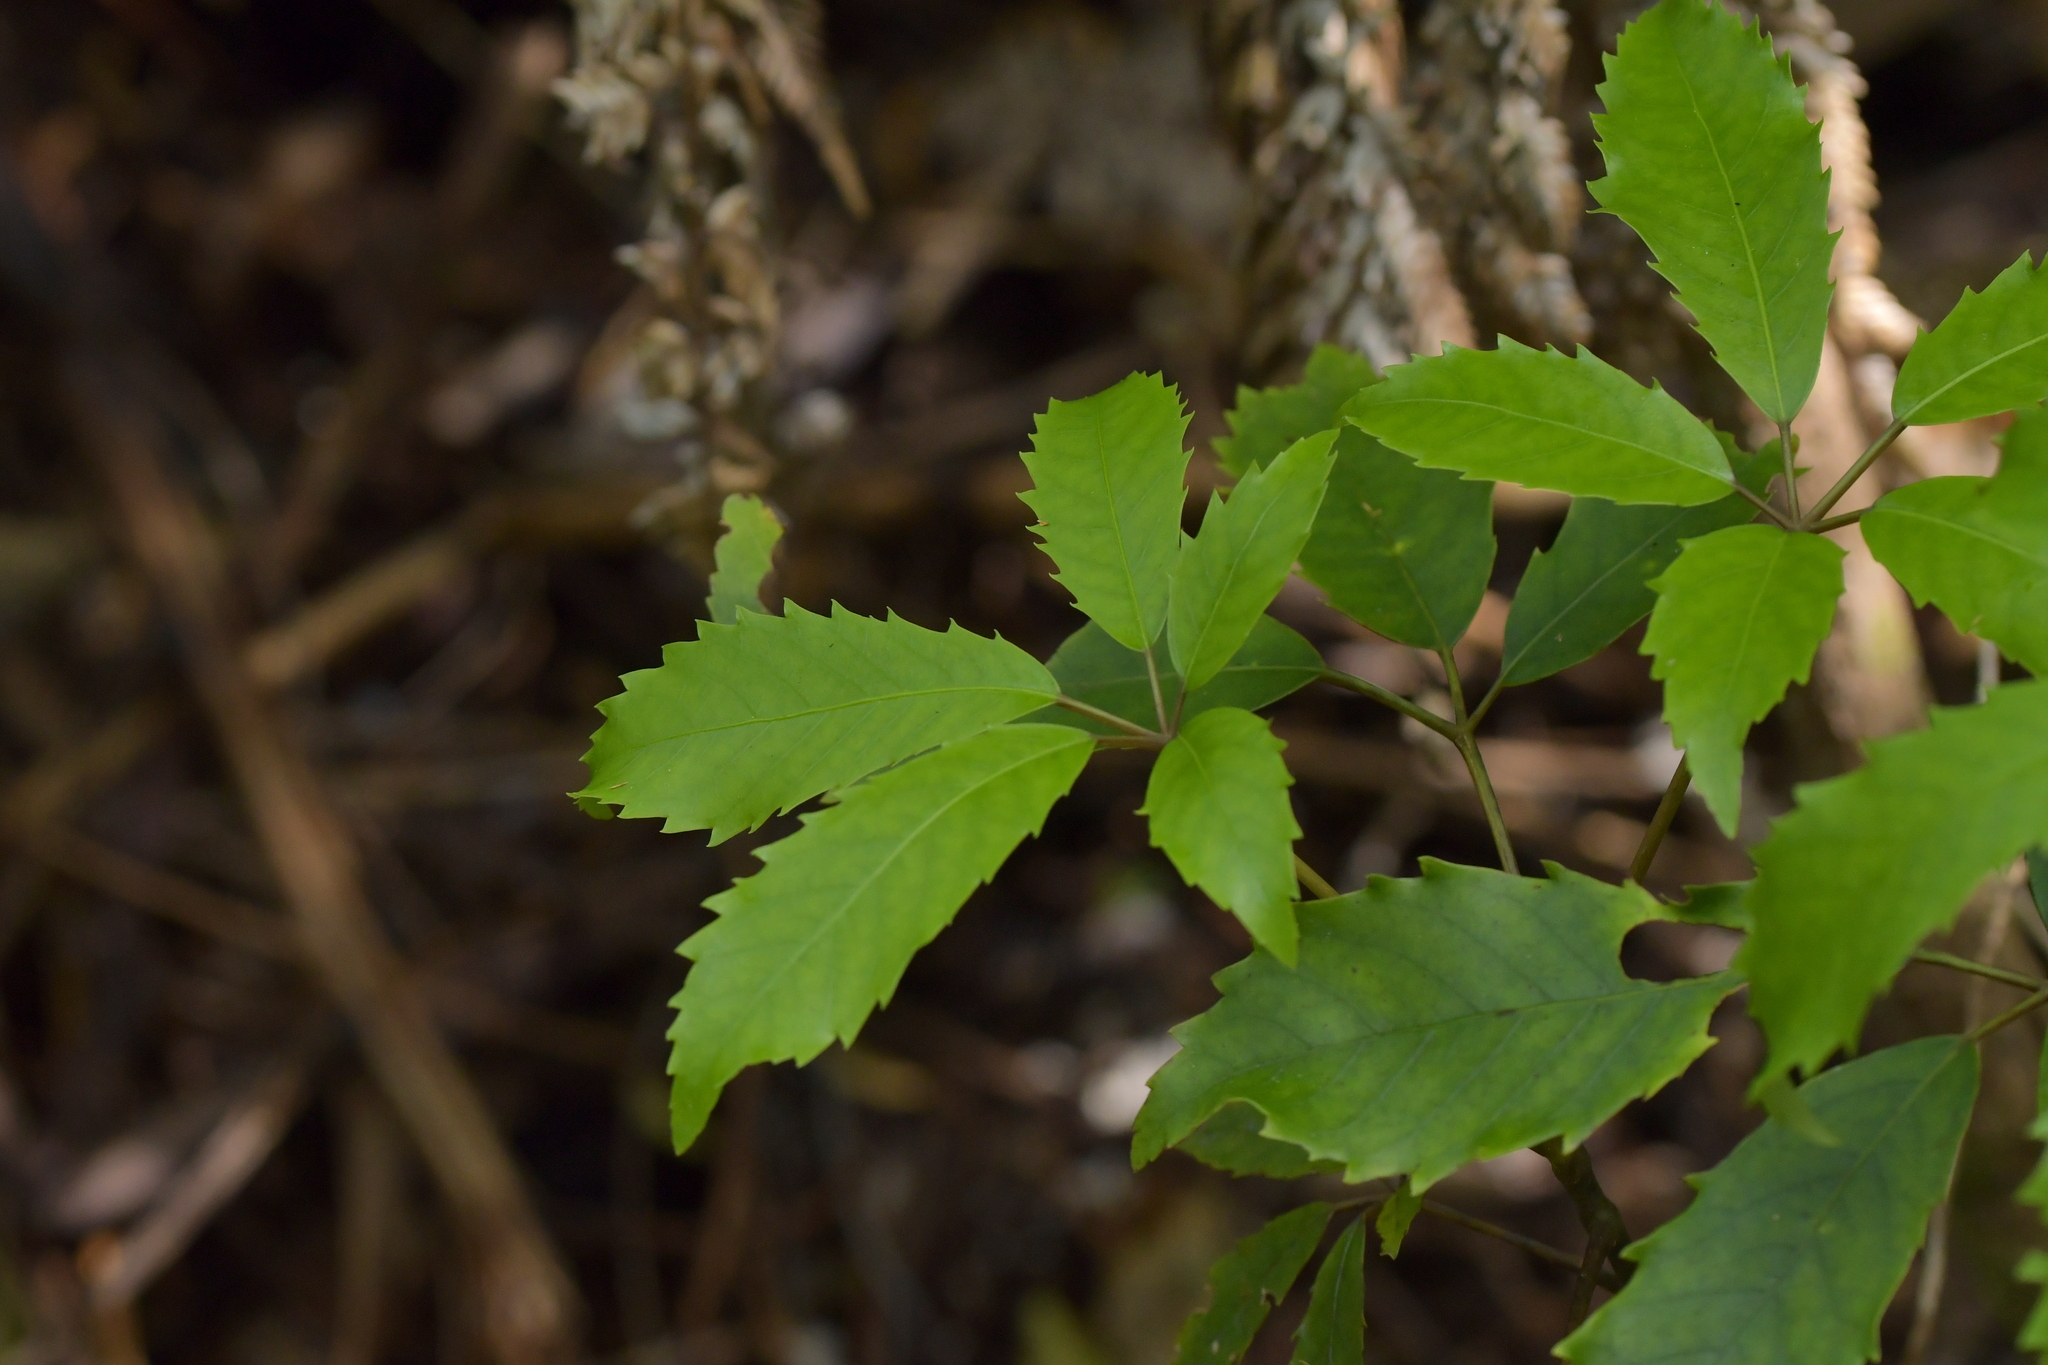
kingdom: Plantae
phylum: Tracheophyta
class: Magnoliopsida
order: Apiales
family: Araliaceae
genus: Neopanax
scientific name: Neopanax arboreus
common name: Five-fingers
